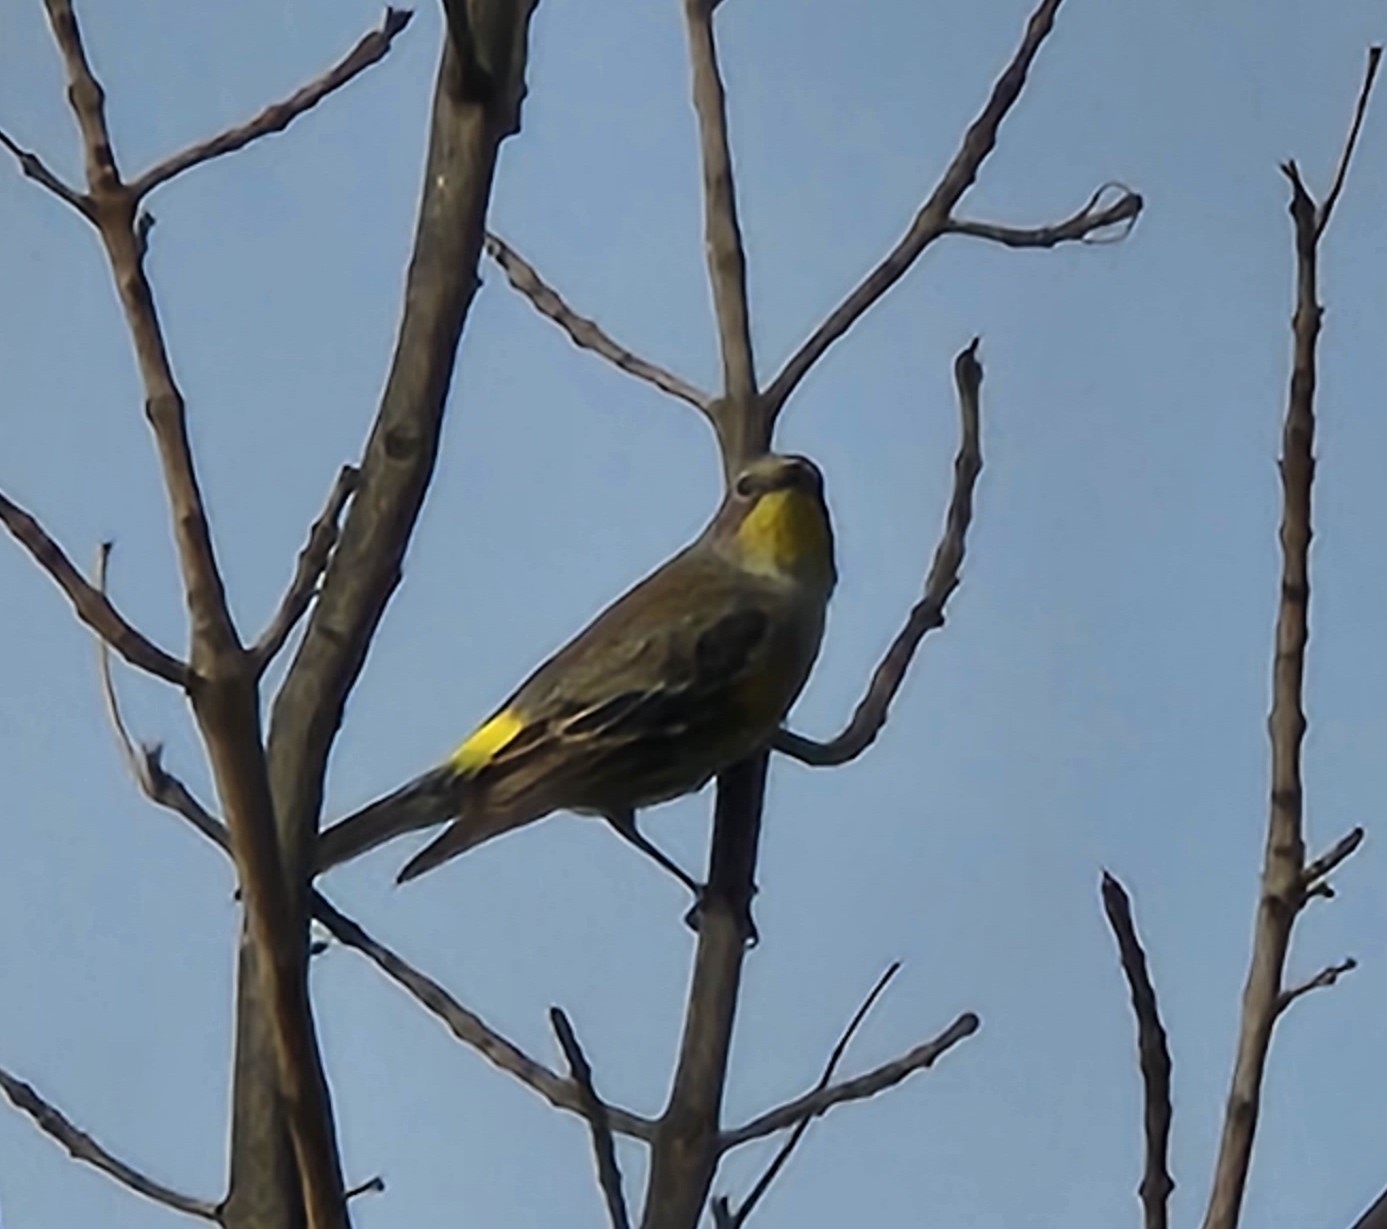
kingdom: Animalia
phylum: Chordata
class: Aves
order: Passeriformes
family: Parulidae
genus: Setophaga
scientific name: Setophaga auduboni
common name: Audubon's warbler
